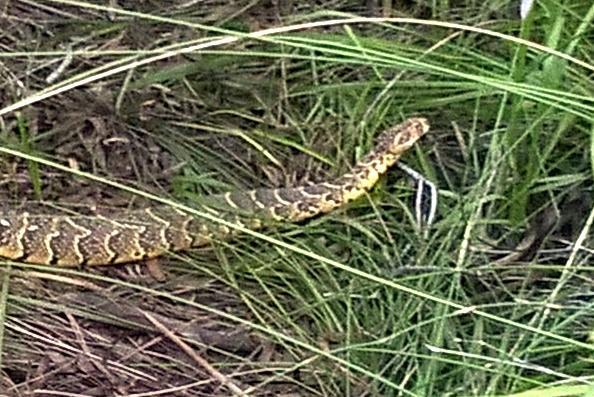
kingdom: Animalia
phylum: Chordata
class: Squamata
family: Viperidae
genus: Bitis
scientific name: Bitis arietans
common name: Puff adder
